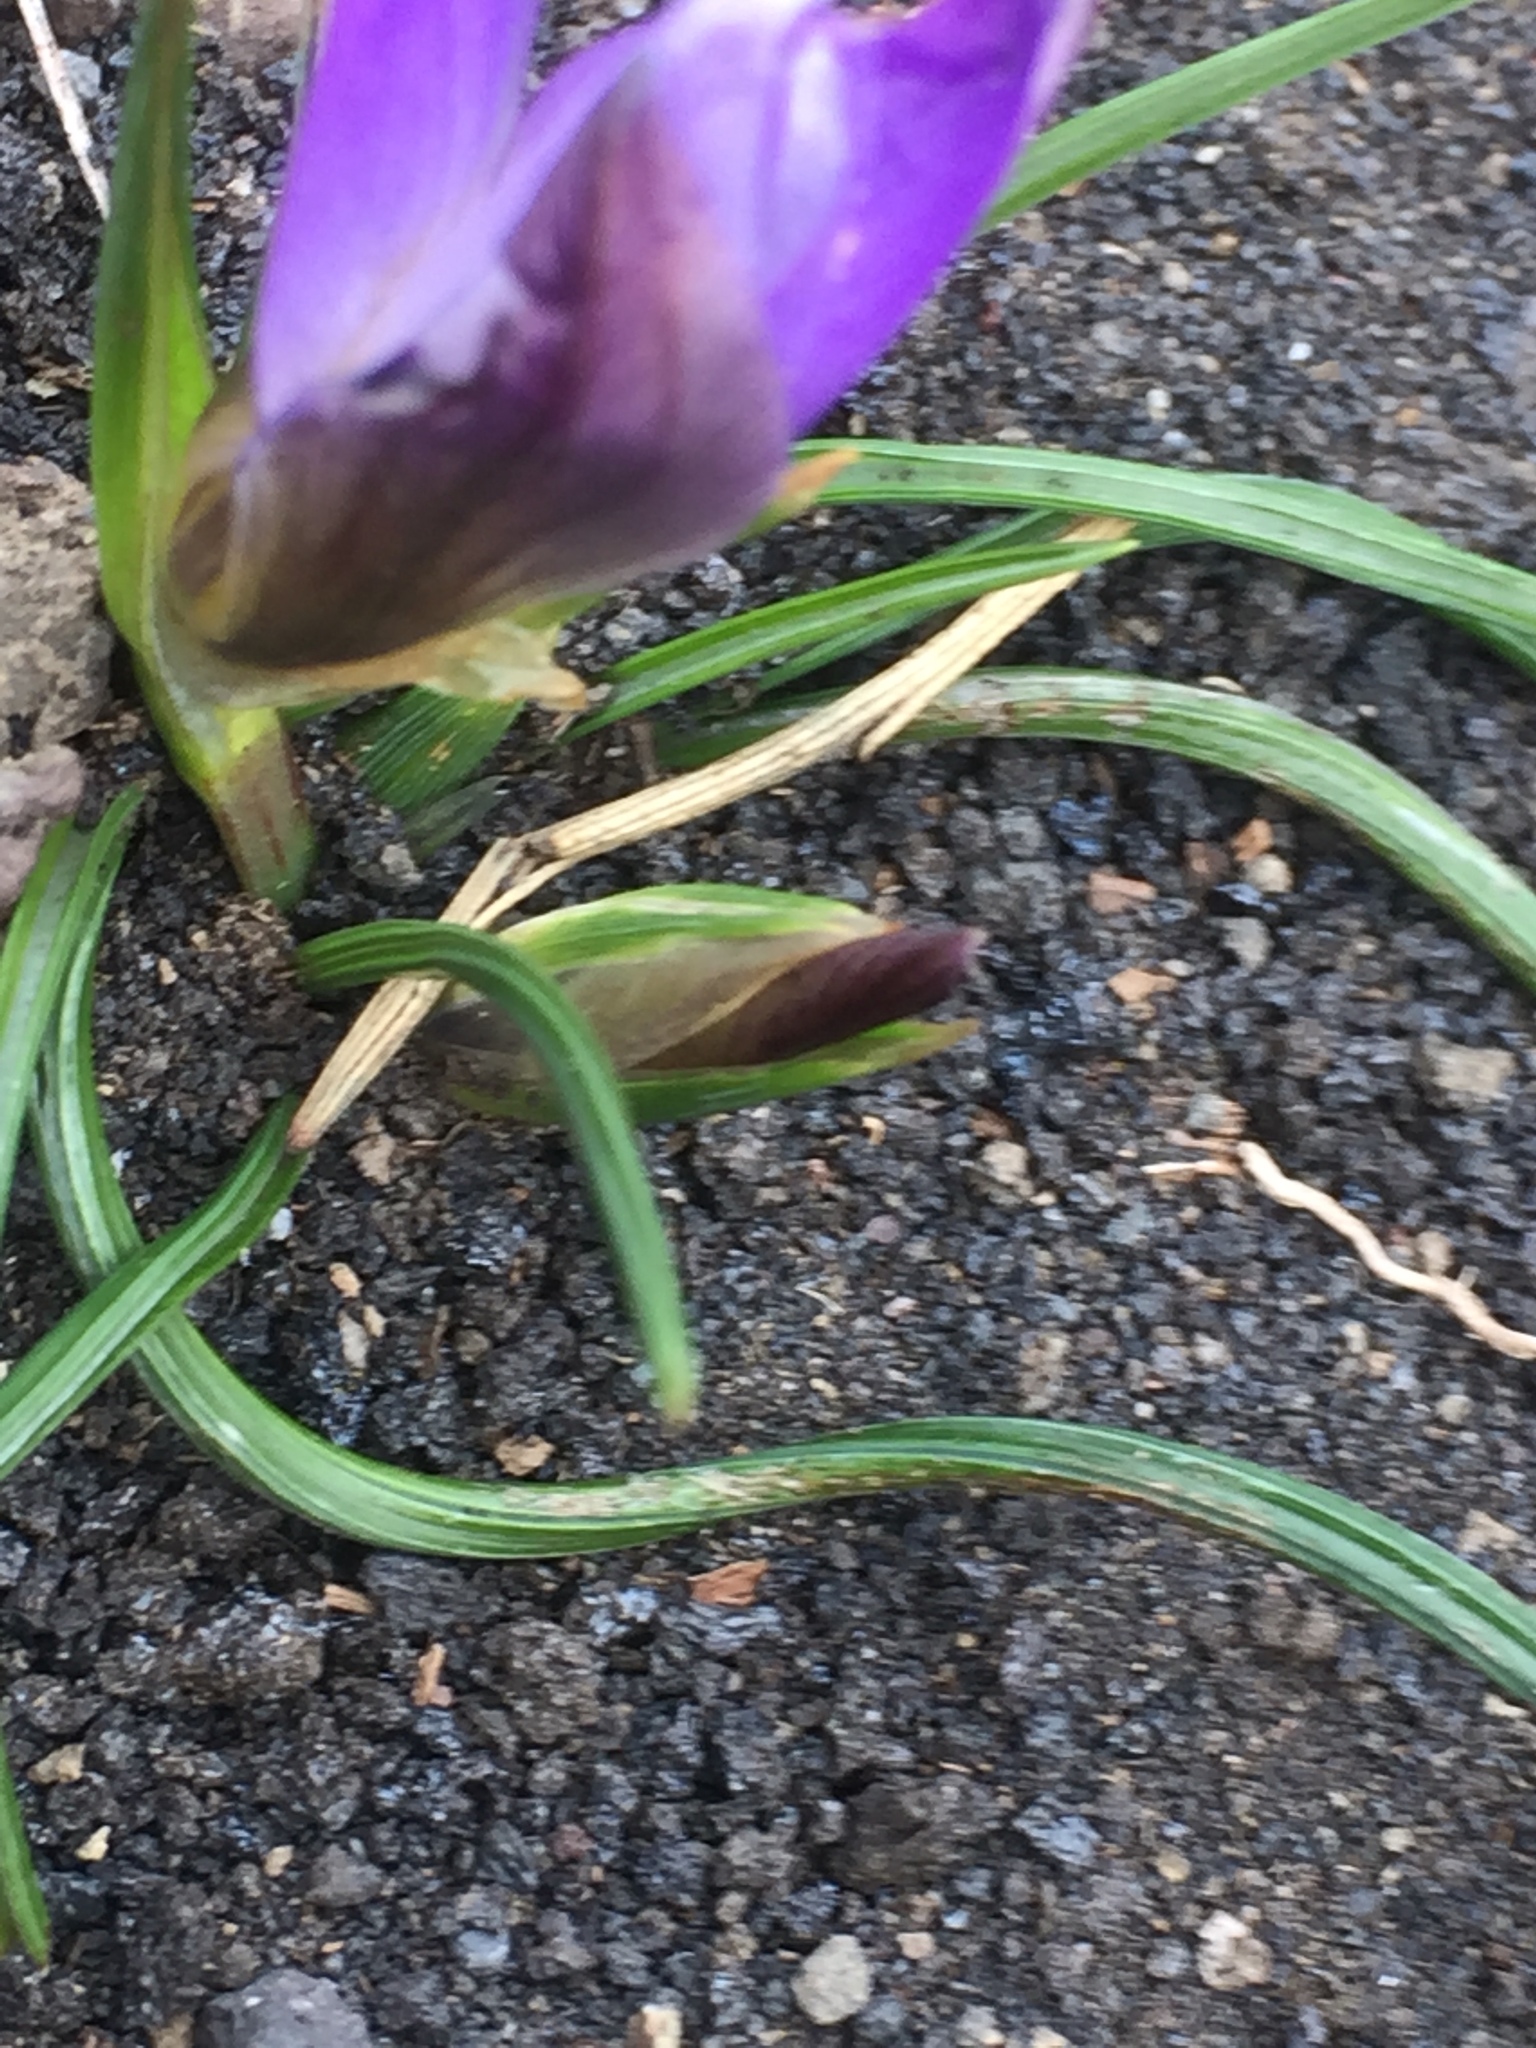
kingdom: Plantae
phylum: Tracheophyta
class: Liliopsida
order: Asparagales
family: Iridaceae
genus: Moraea
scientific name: Moraea sisyrinchium
